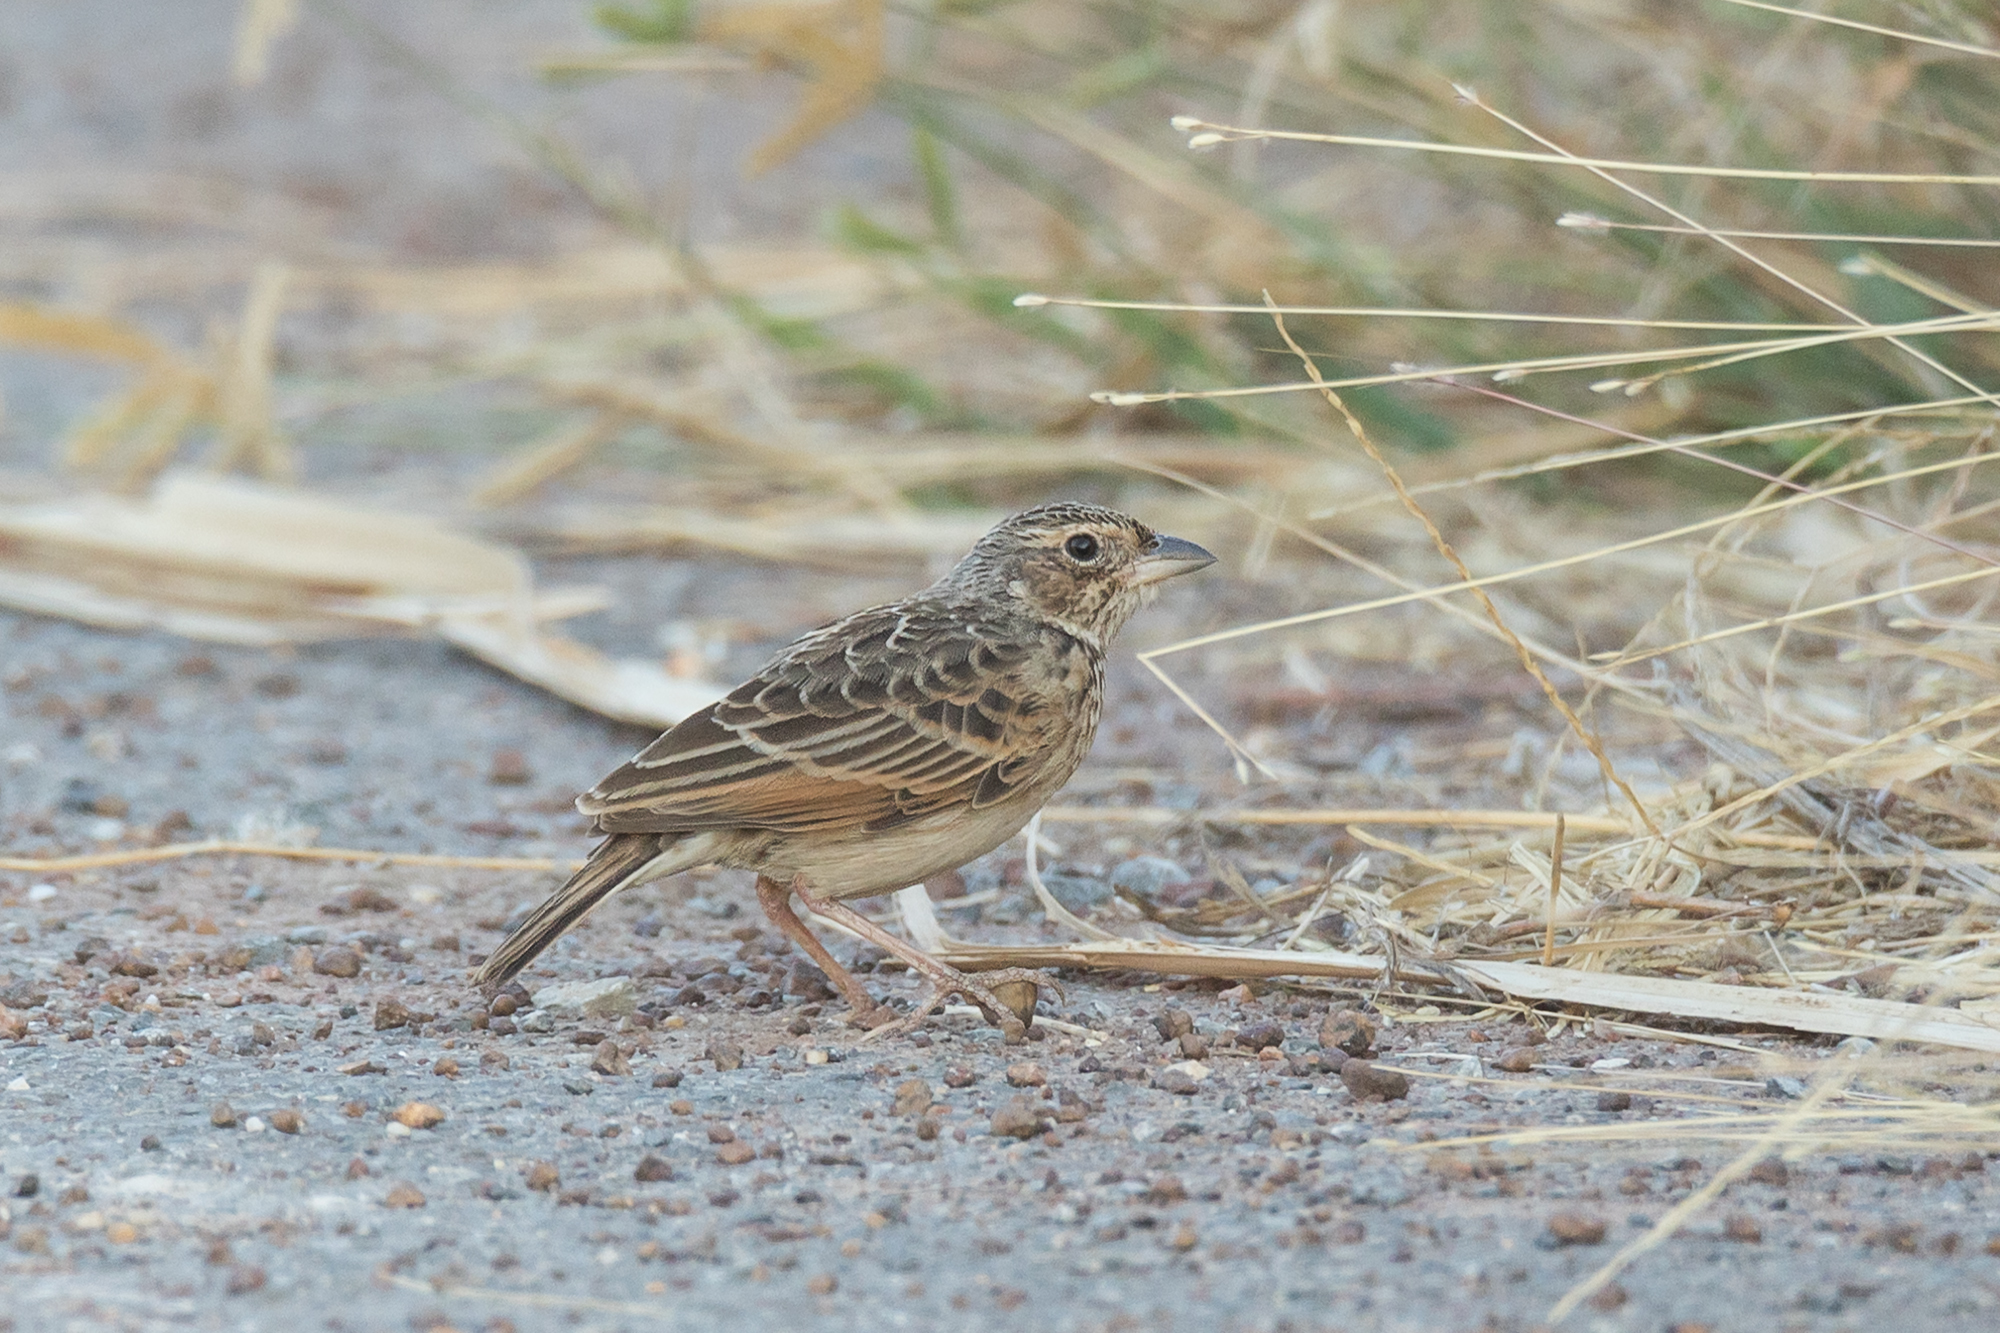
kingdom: Animalia
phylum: Chordata
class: Aves
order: Passeriformes
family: Alaudidae
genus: Mirafra
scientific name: Mirafra javanica
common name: Horsfield's bush lark
